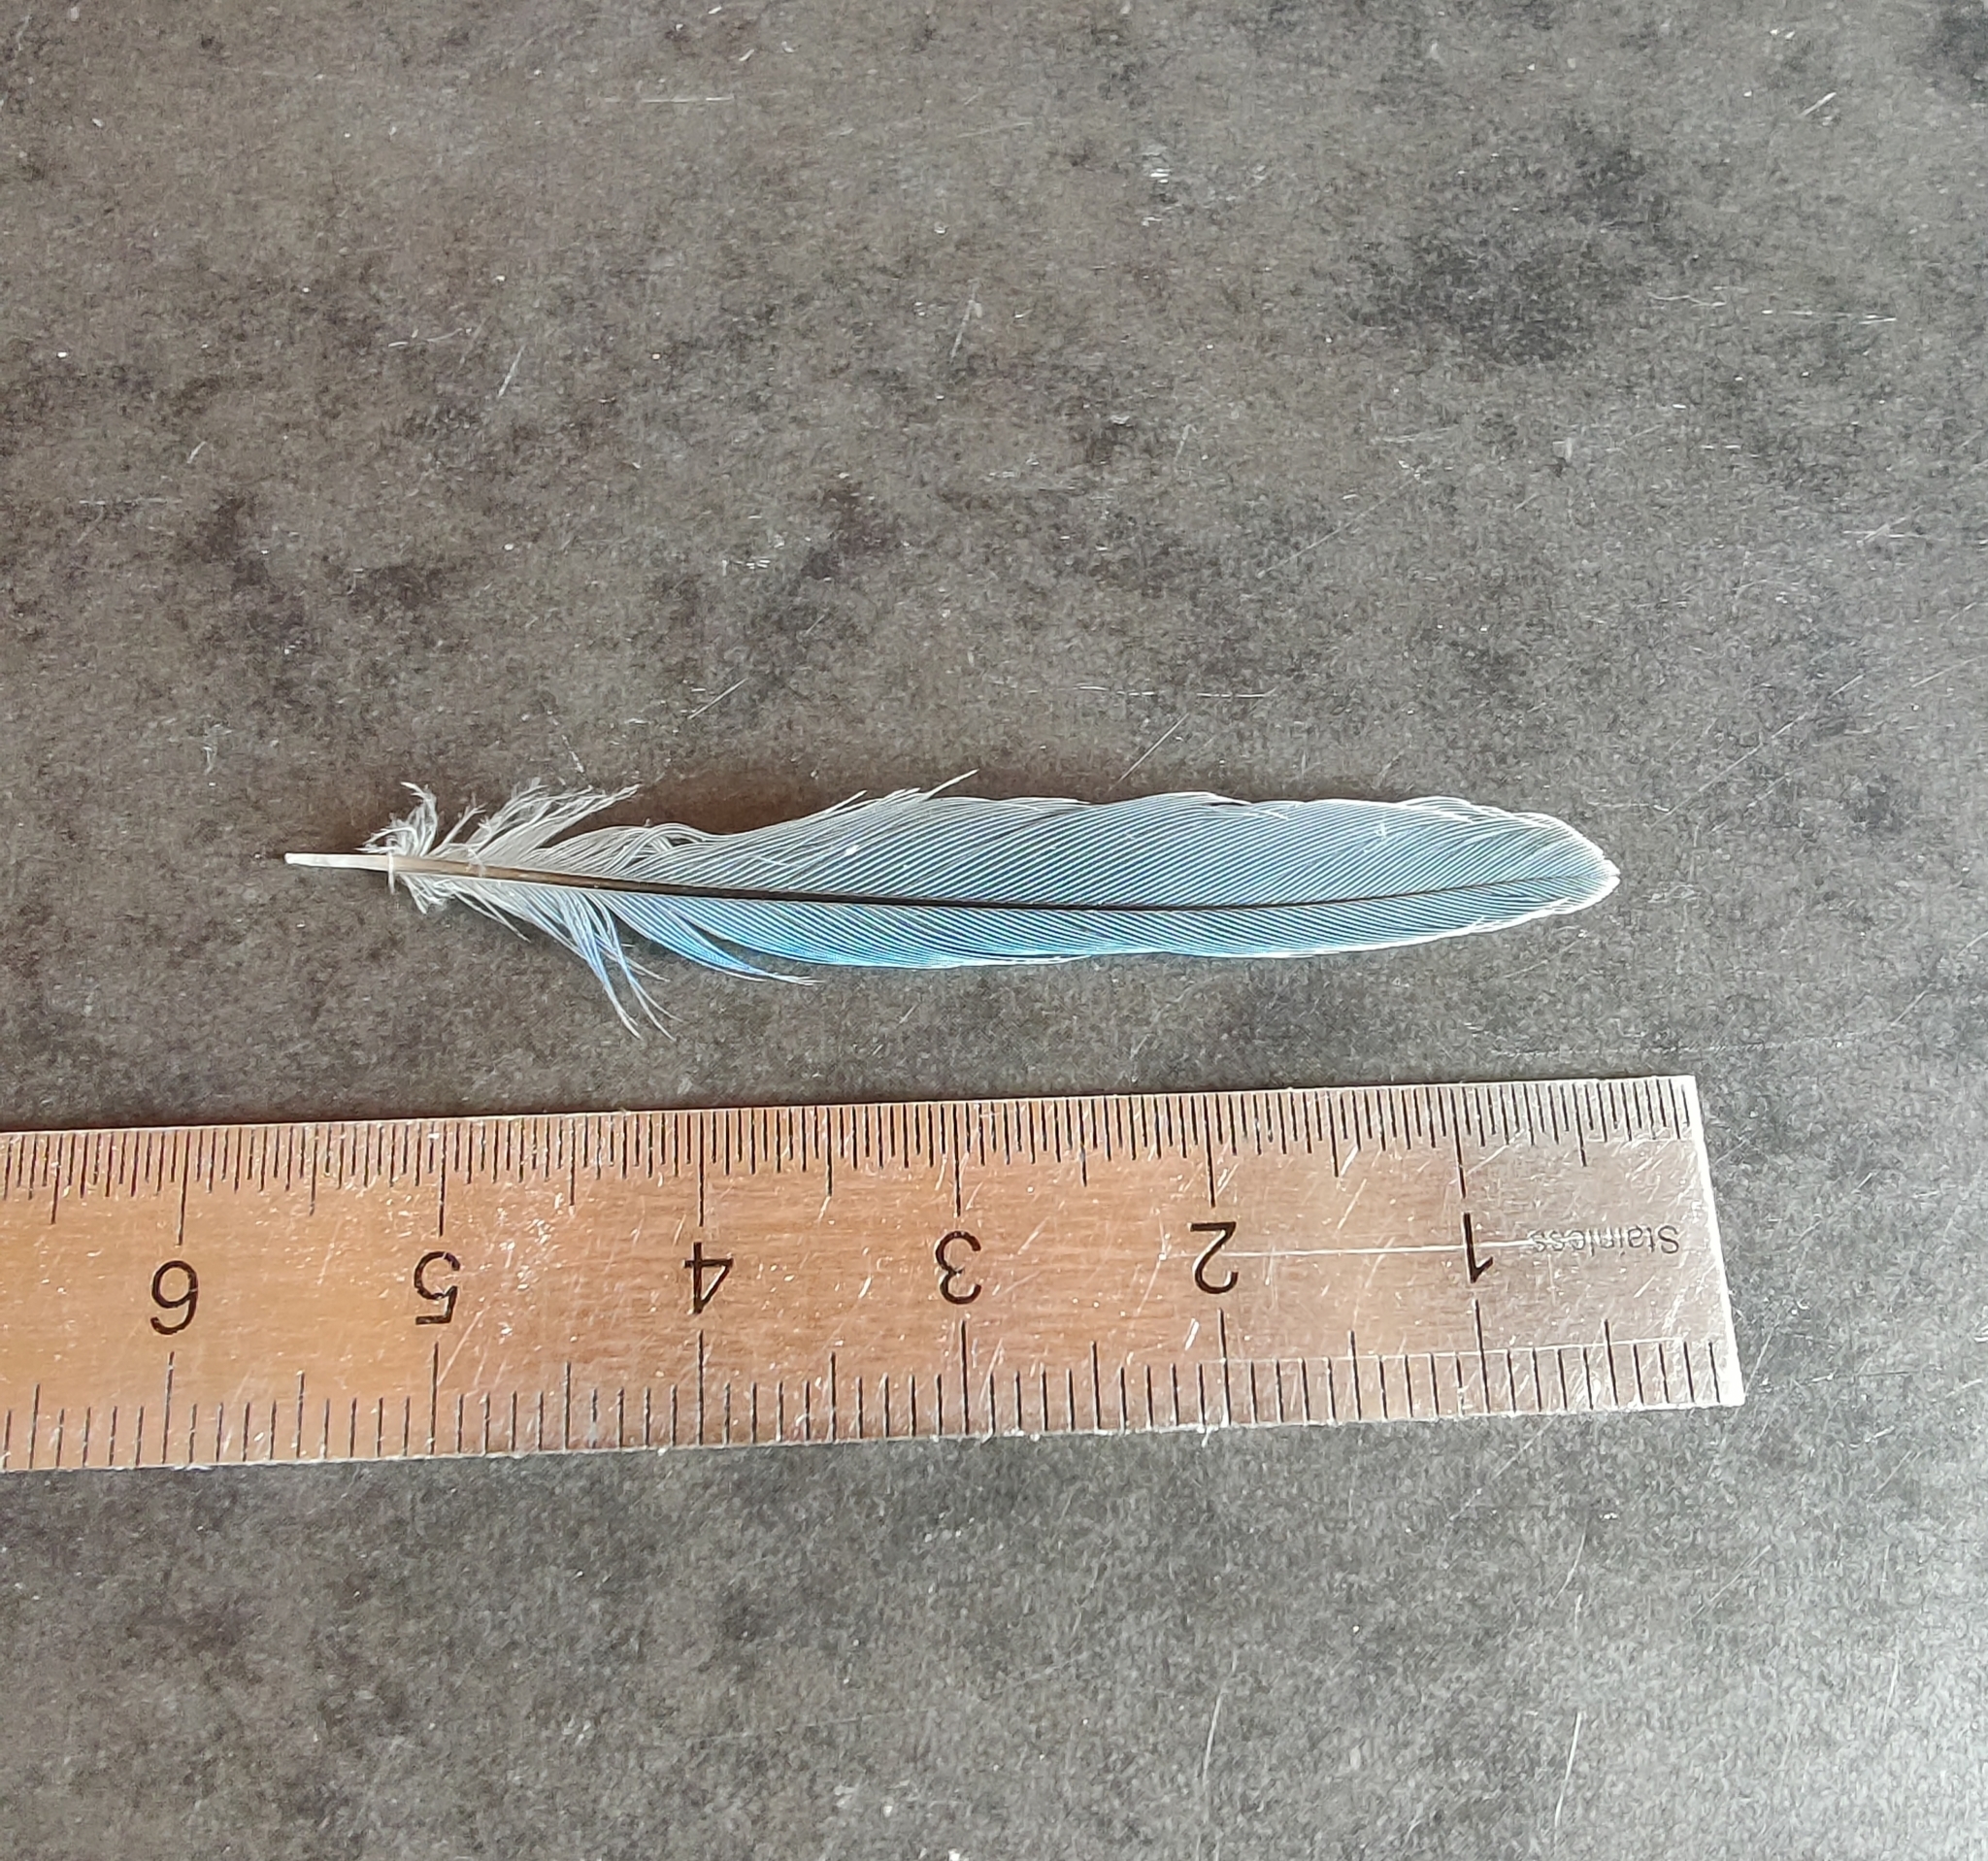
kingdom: Animalia
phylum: Chordata
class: Aves
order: Passeriformes
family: Paridae
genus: Cyanistes
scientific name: Cyanistes caeruleus
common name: Eurasian blue tit
